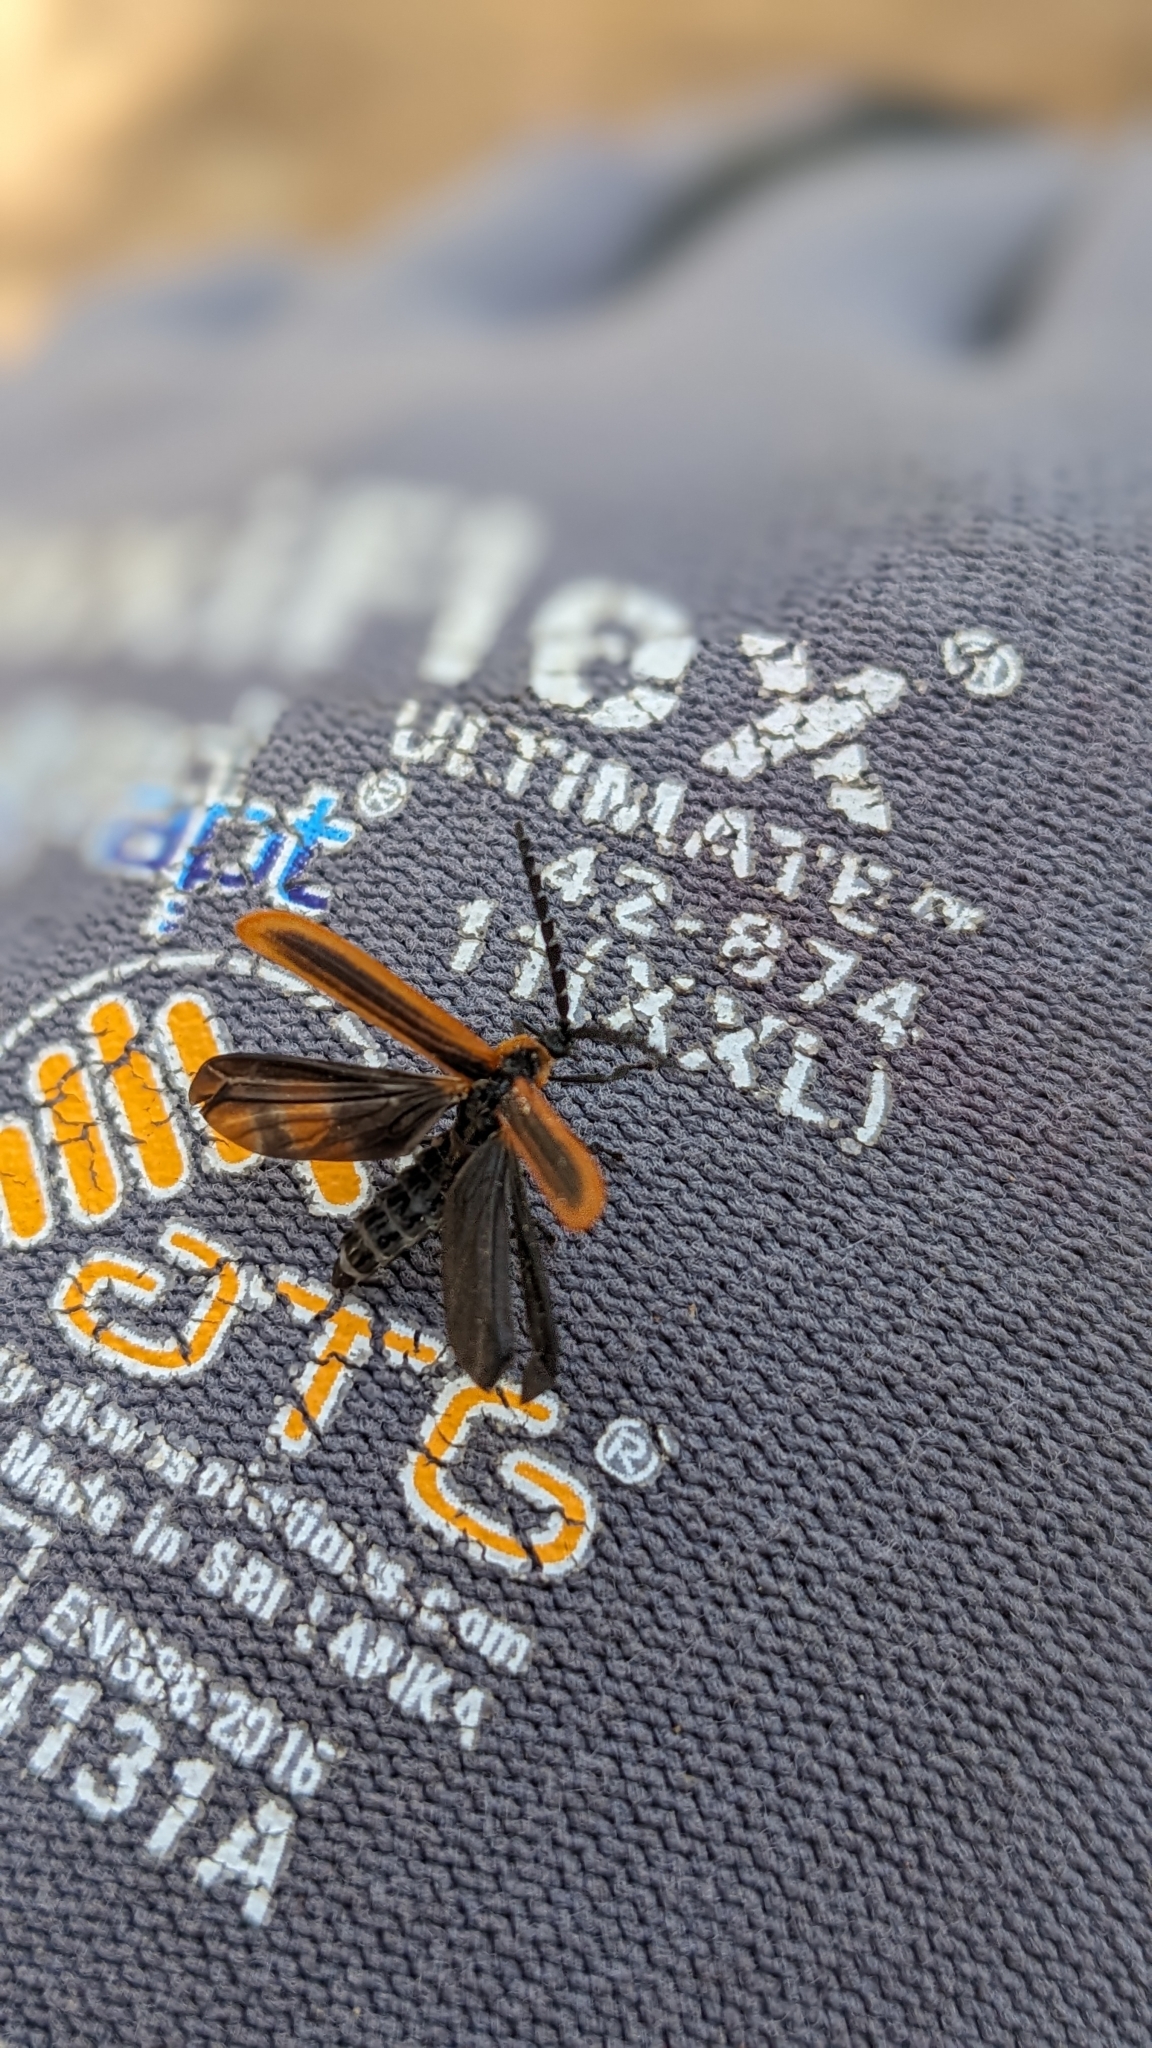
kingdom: Animalia
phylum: Arthropoda
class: Insecta
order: Coleoptera
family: Lycidae
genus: Trichalus
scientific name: Trichalus
